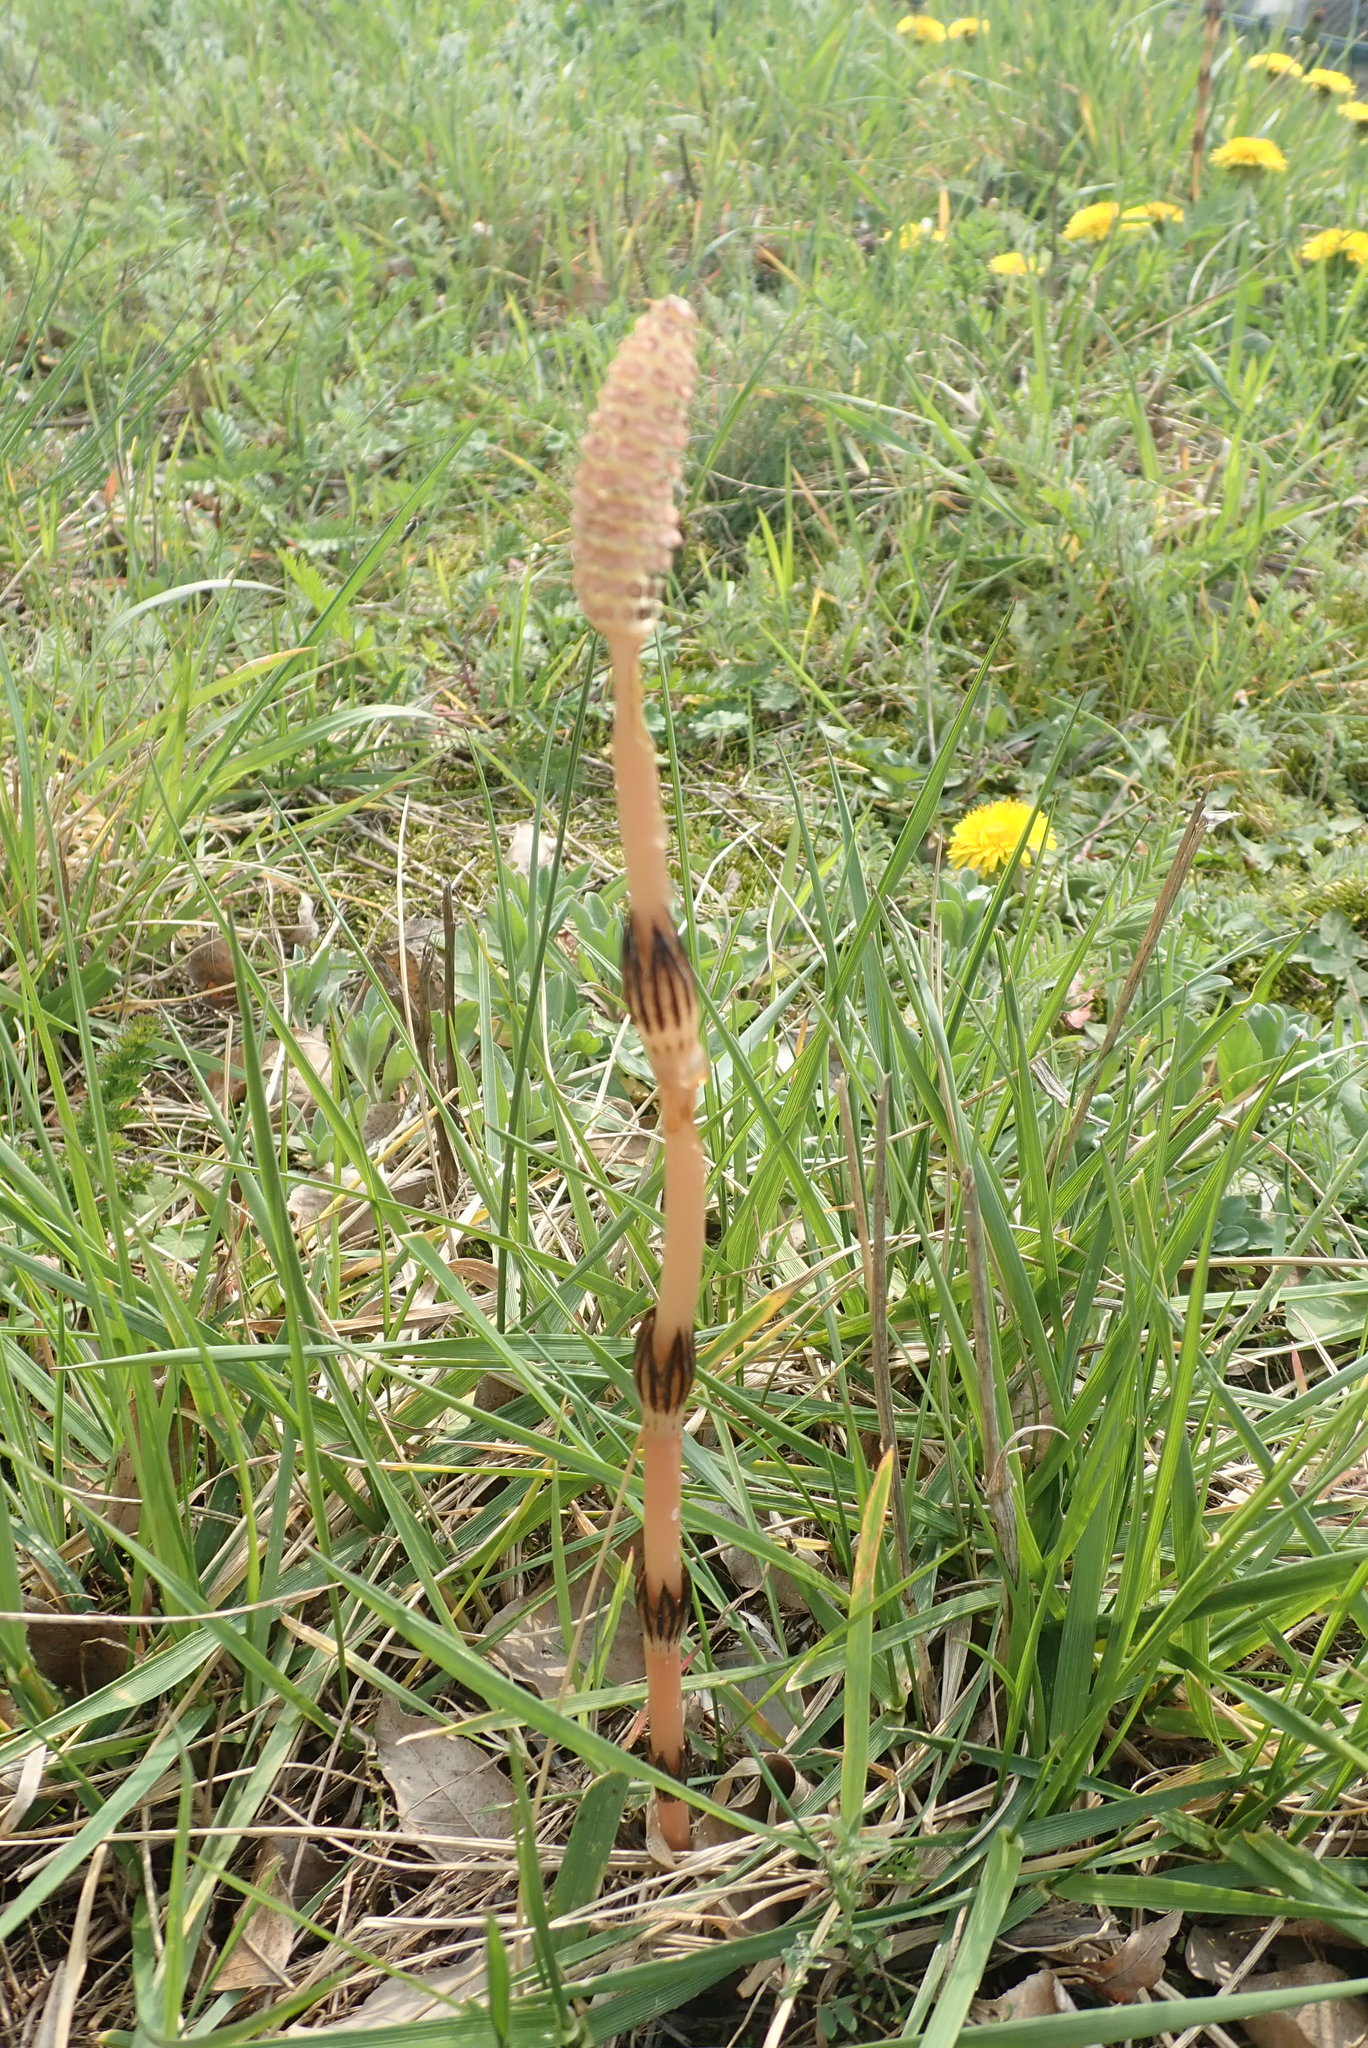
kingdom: Plantae
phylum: Tracheophyta
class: Polypodiopsida
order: Equisetales
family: Equisetaceae
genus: Equisetum
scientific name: Equisetum arvense
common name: Field horsetail
